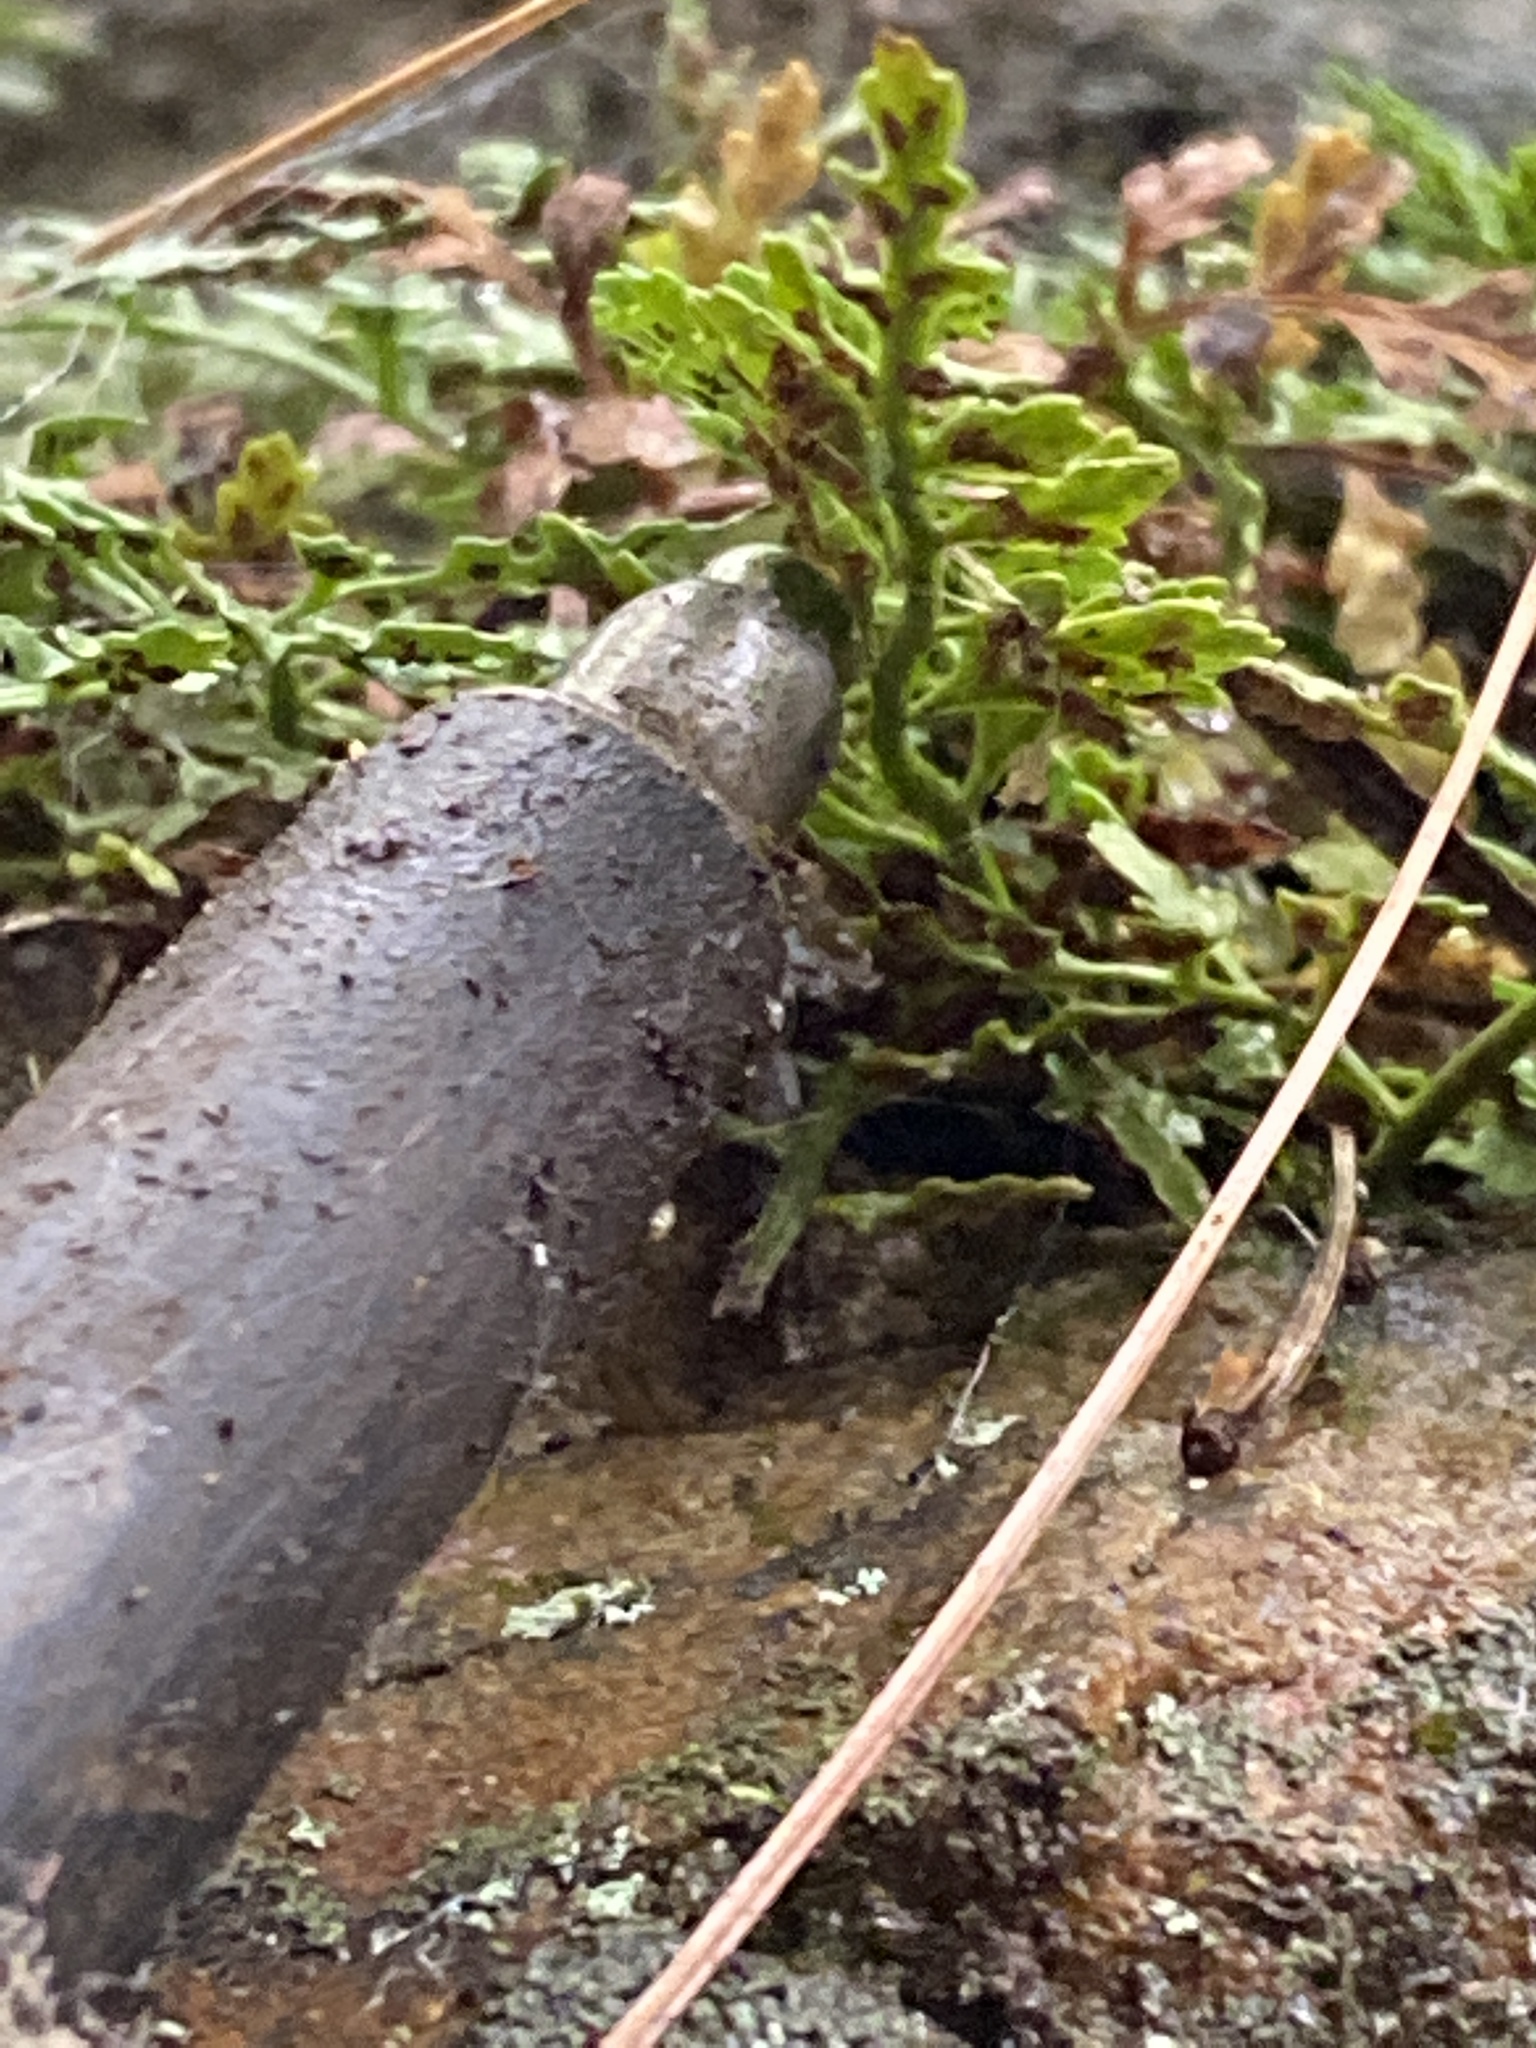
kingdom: Plantae
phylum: Tracheophyta
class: Polypodiopsida
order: Polypodiales
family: Aspleniaceae
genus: Asplenium
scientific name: Asplenium montanum
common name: Mountain spleenwort
